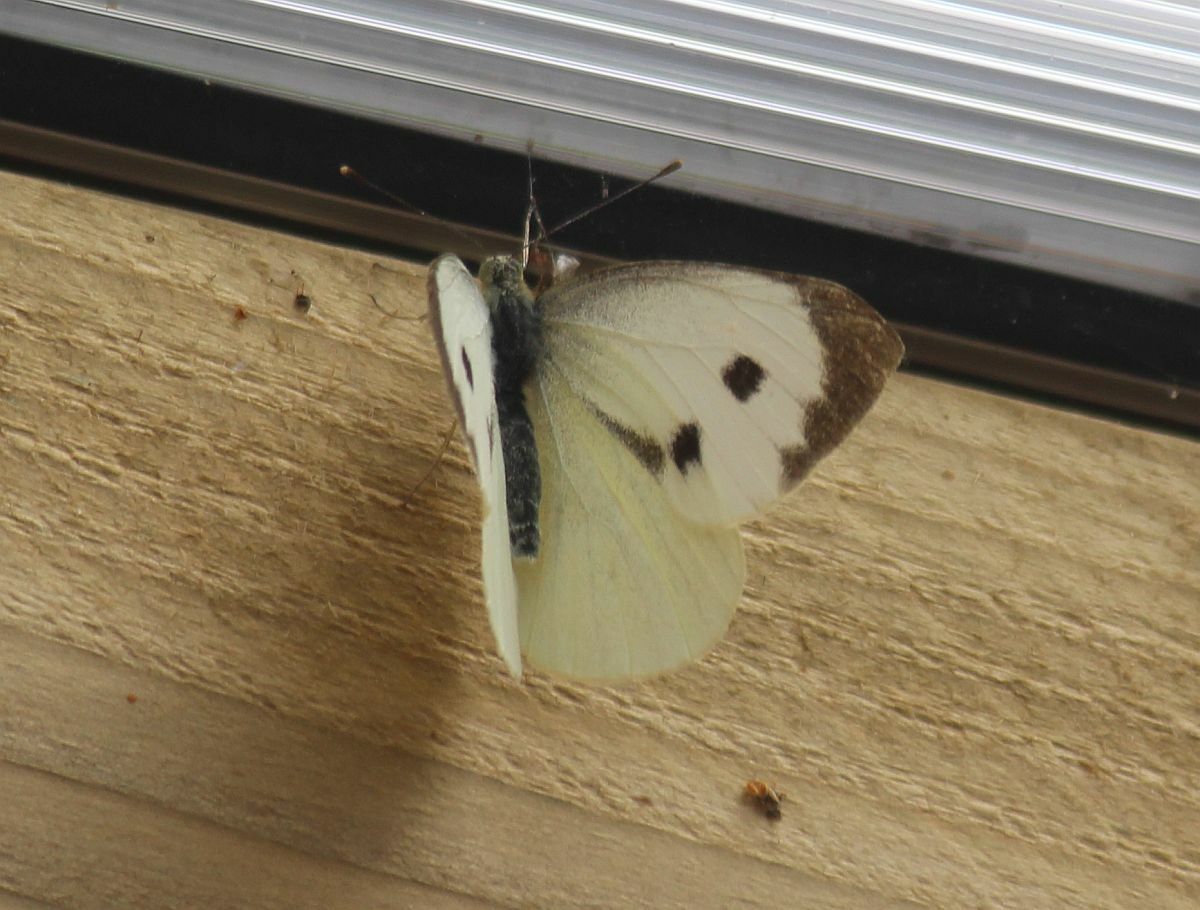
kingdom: Animalia
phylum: Arthropoda
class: Insecta
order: Lepidoptera
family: Pieridae
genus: Pieris
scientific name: Pieris brassicae
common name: Large white
